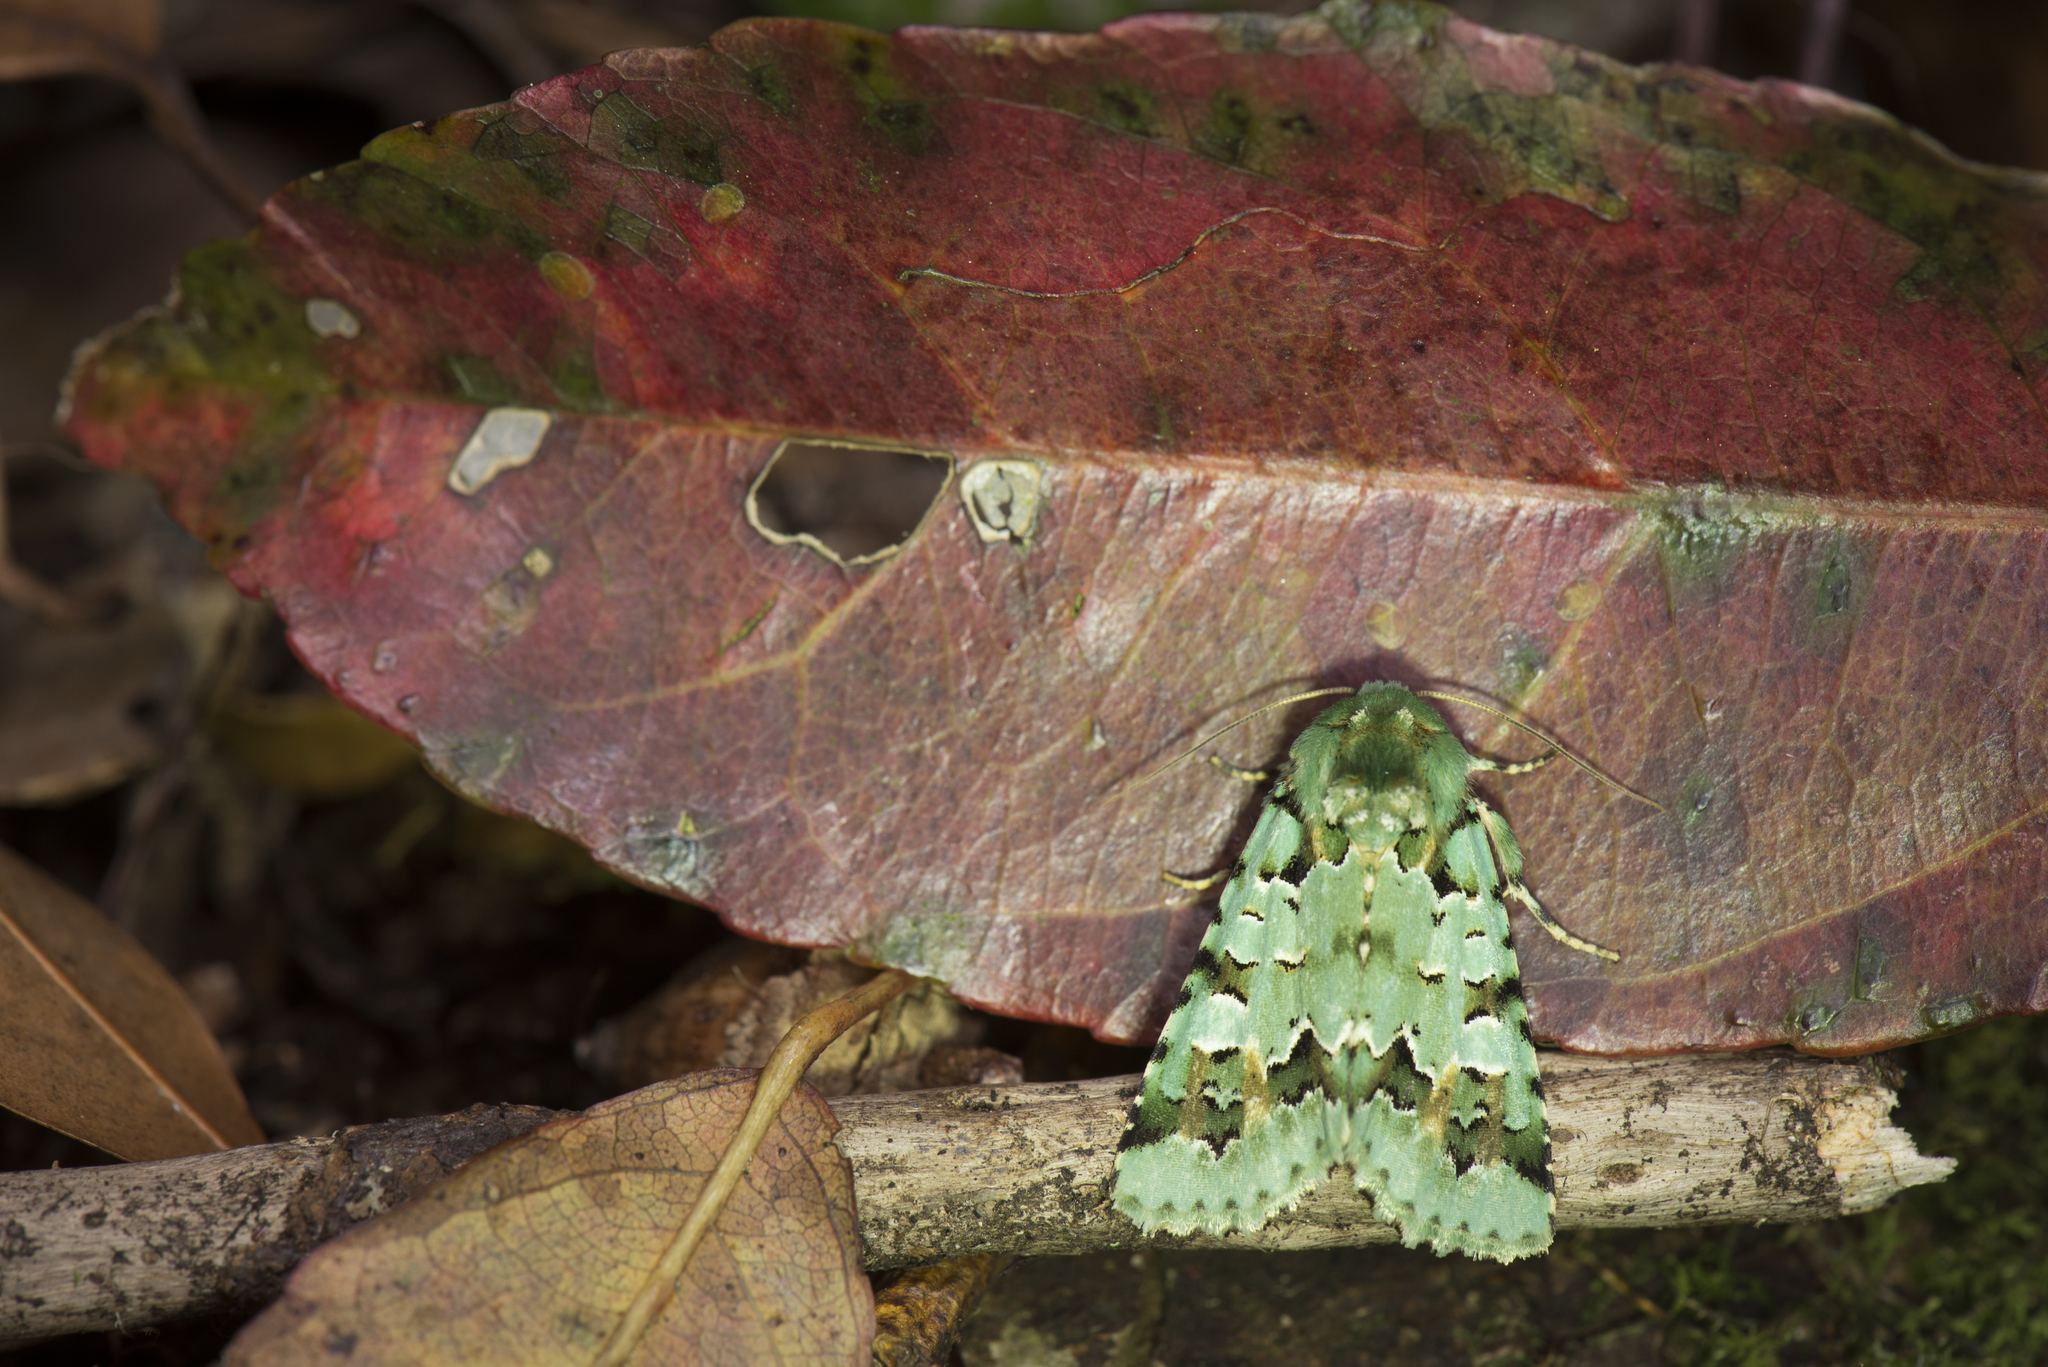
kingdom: Animalia
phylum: Arthropoda
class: Insecta
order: Lepidoptera
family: Noctuidae
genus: Daseochaeta
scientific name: Daseochaeta pulchra
